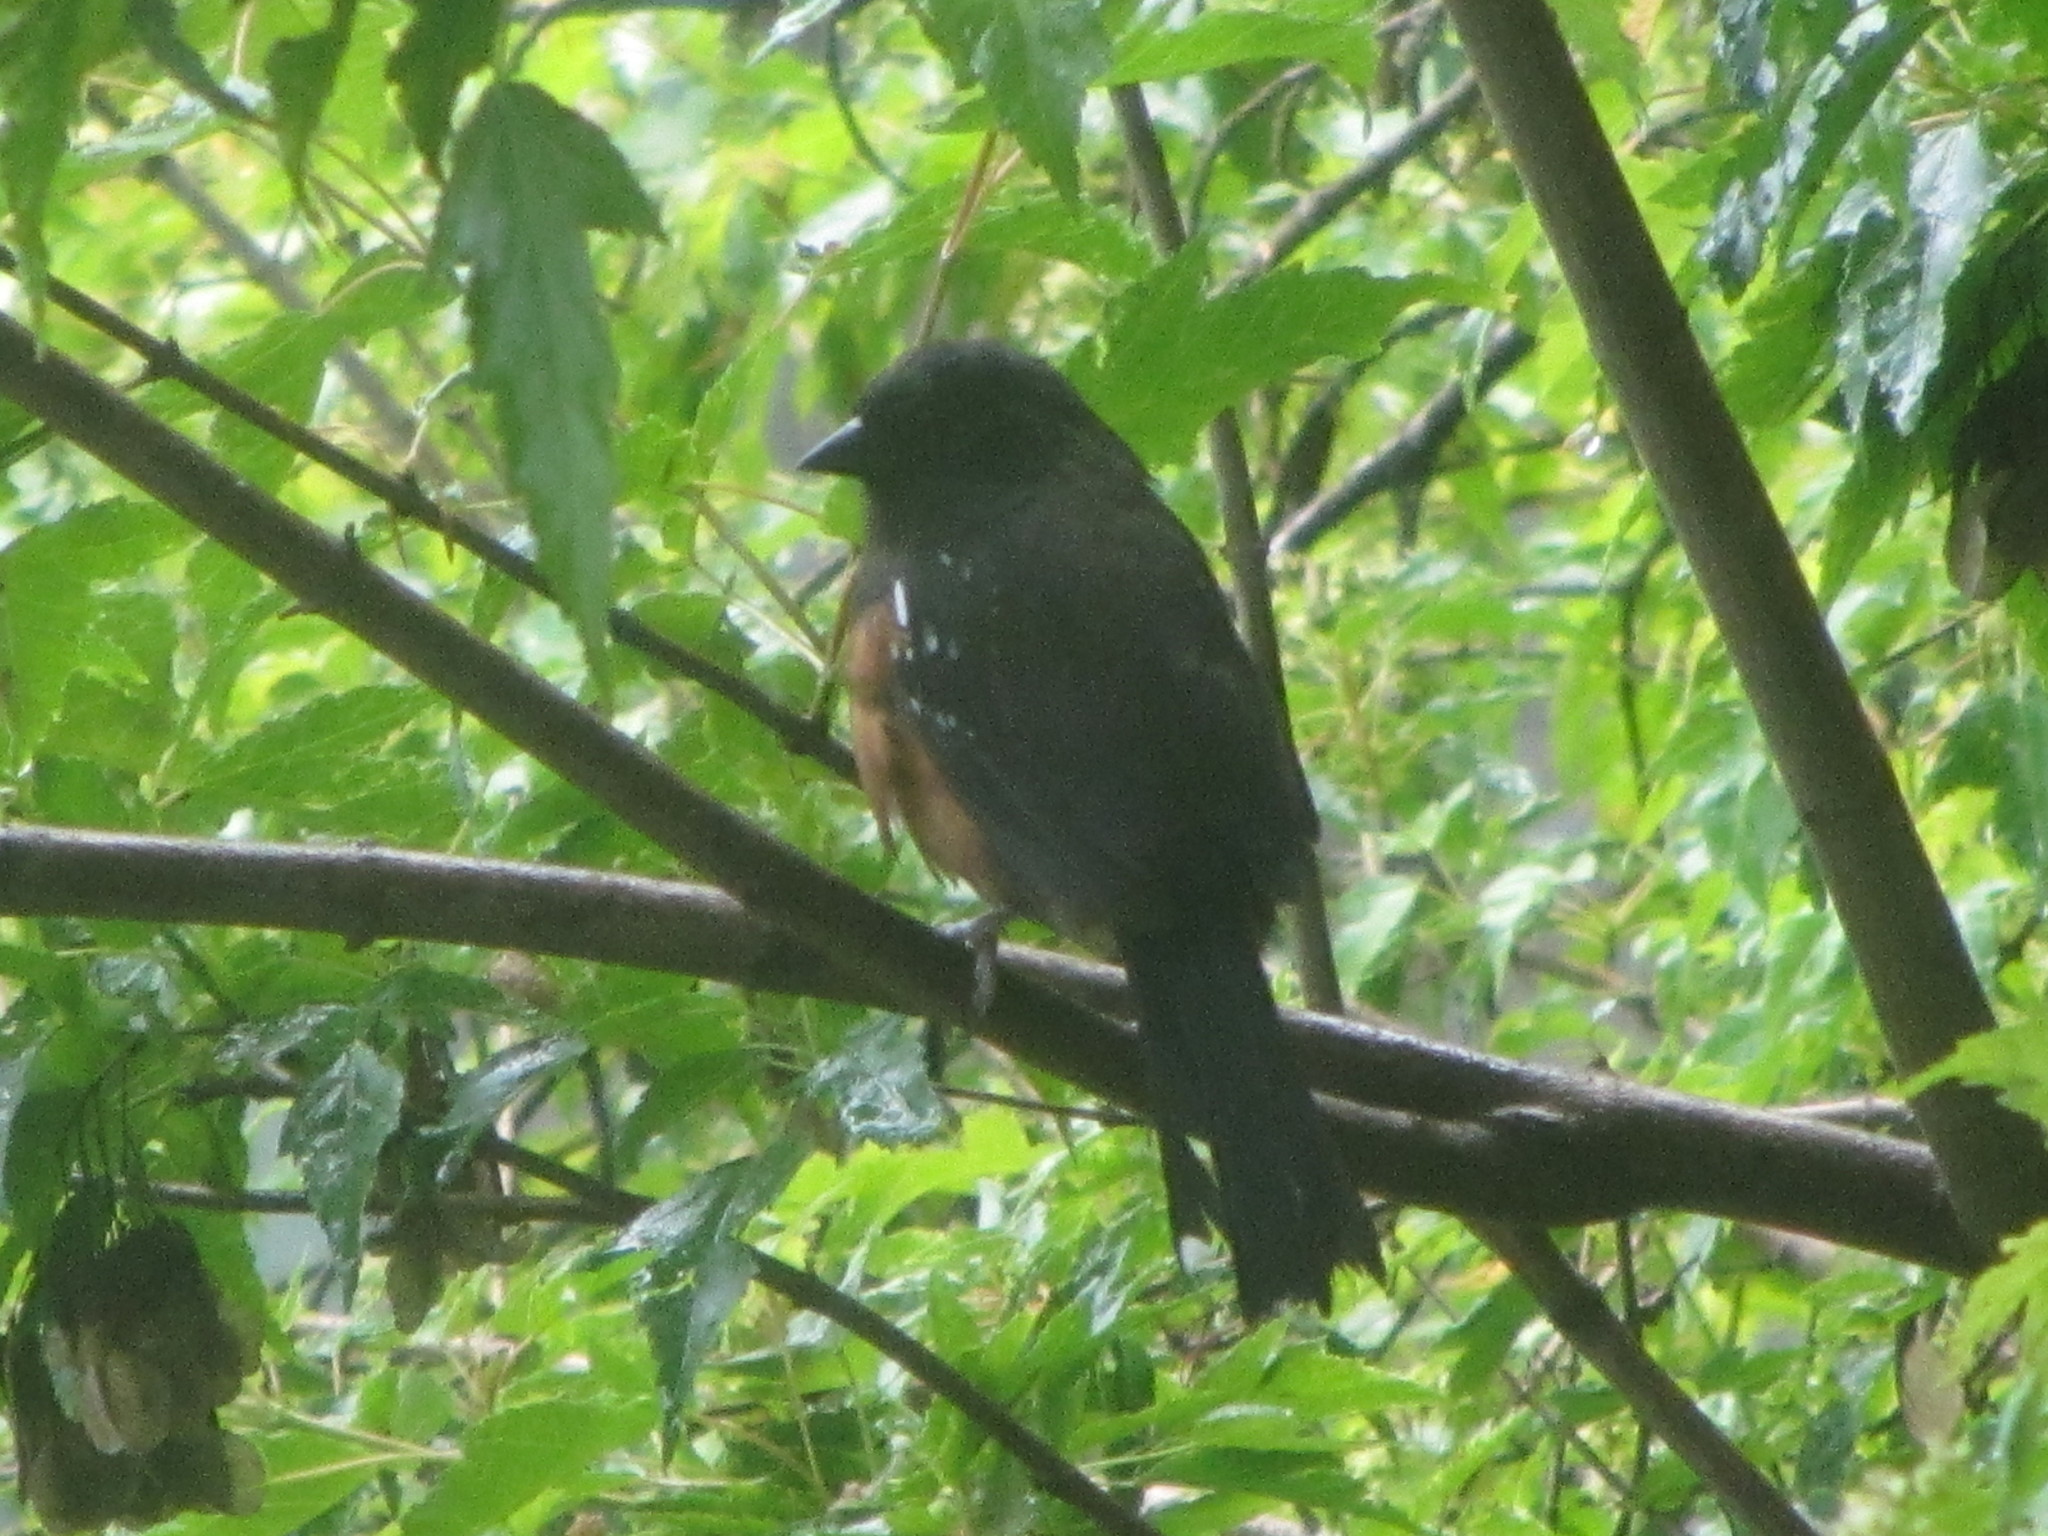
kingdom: Animalia
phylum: Chordata
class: Aves
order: Passeriformes
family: Passerellidae
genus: Pipilo
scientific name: Pipilo maculatus
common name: Spotted towhee
